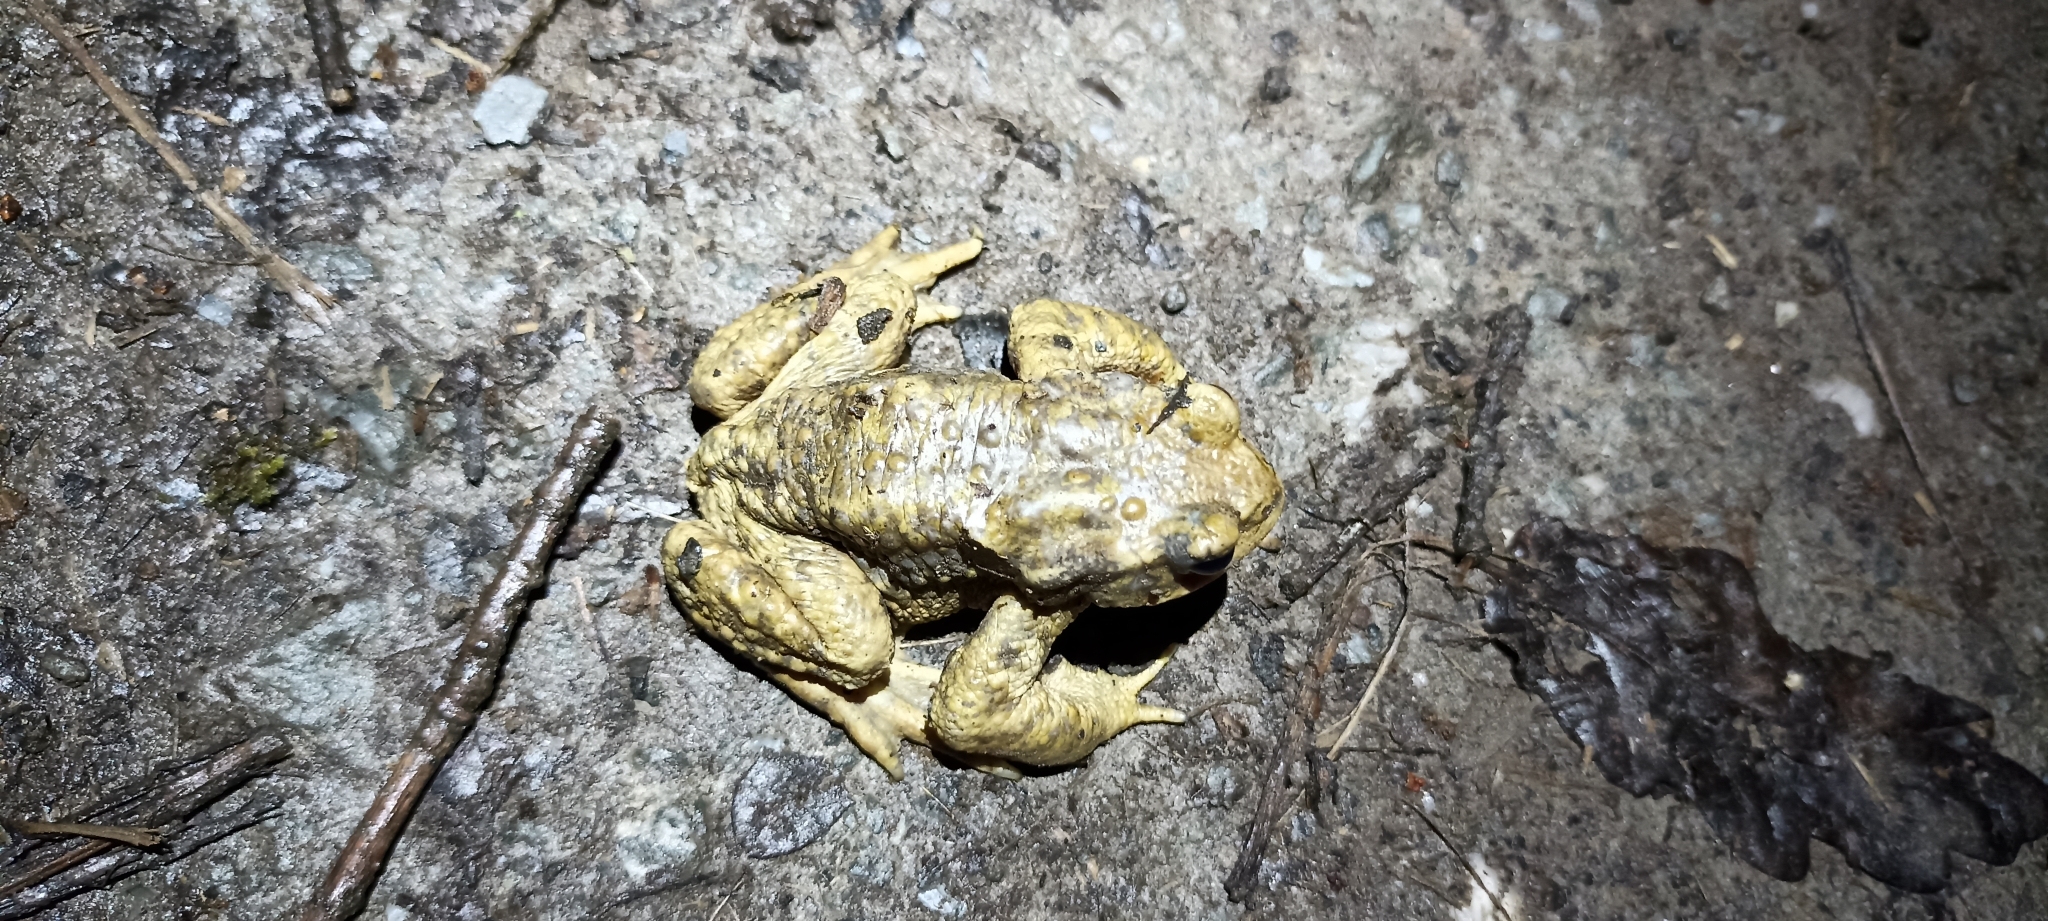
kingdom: Animalia
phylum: Chordata
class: Amphibia
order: Anura
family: Bufonidae
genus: Bufo
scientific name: Bufo spinosus
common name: Western common toad
